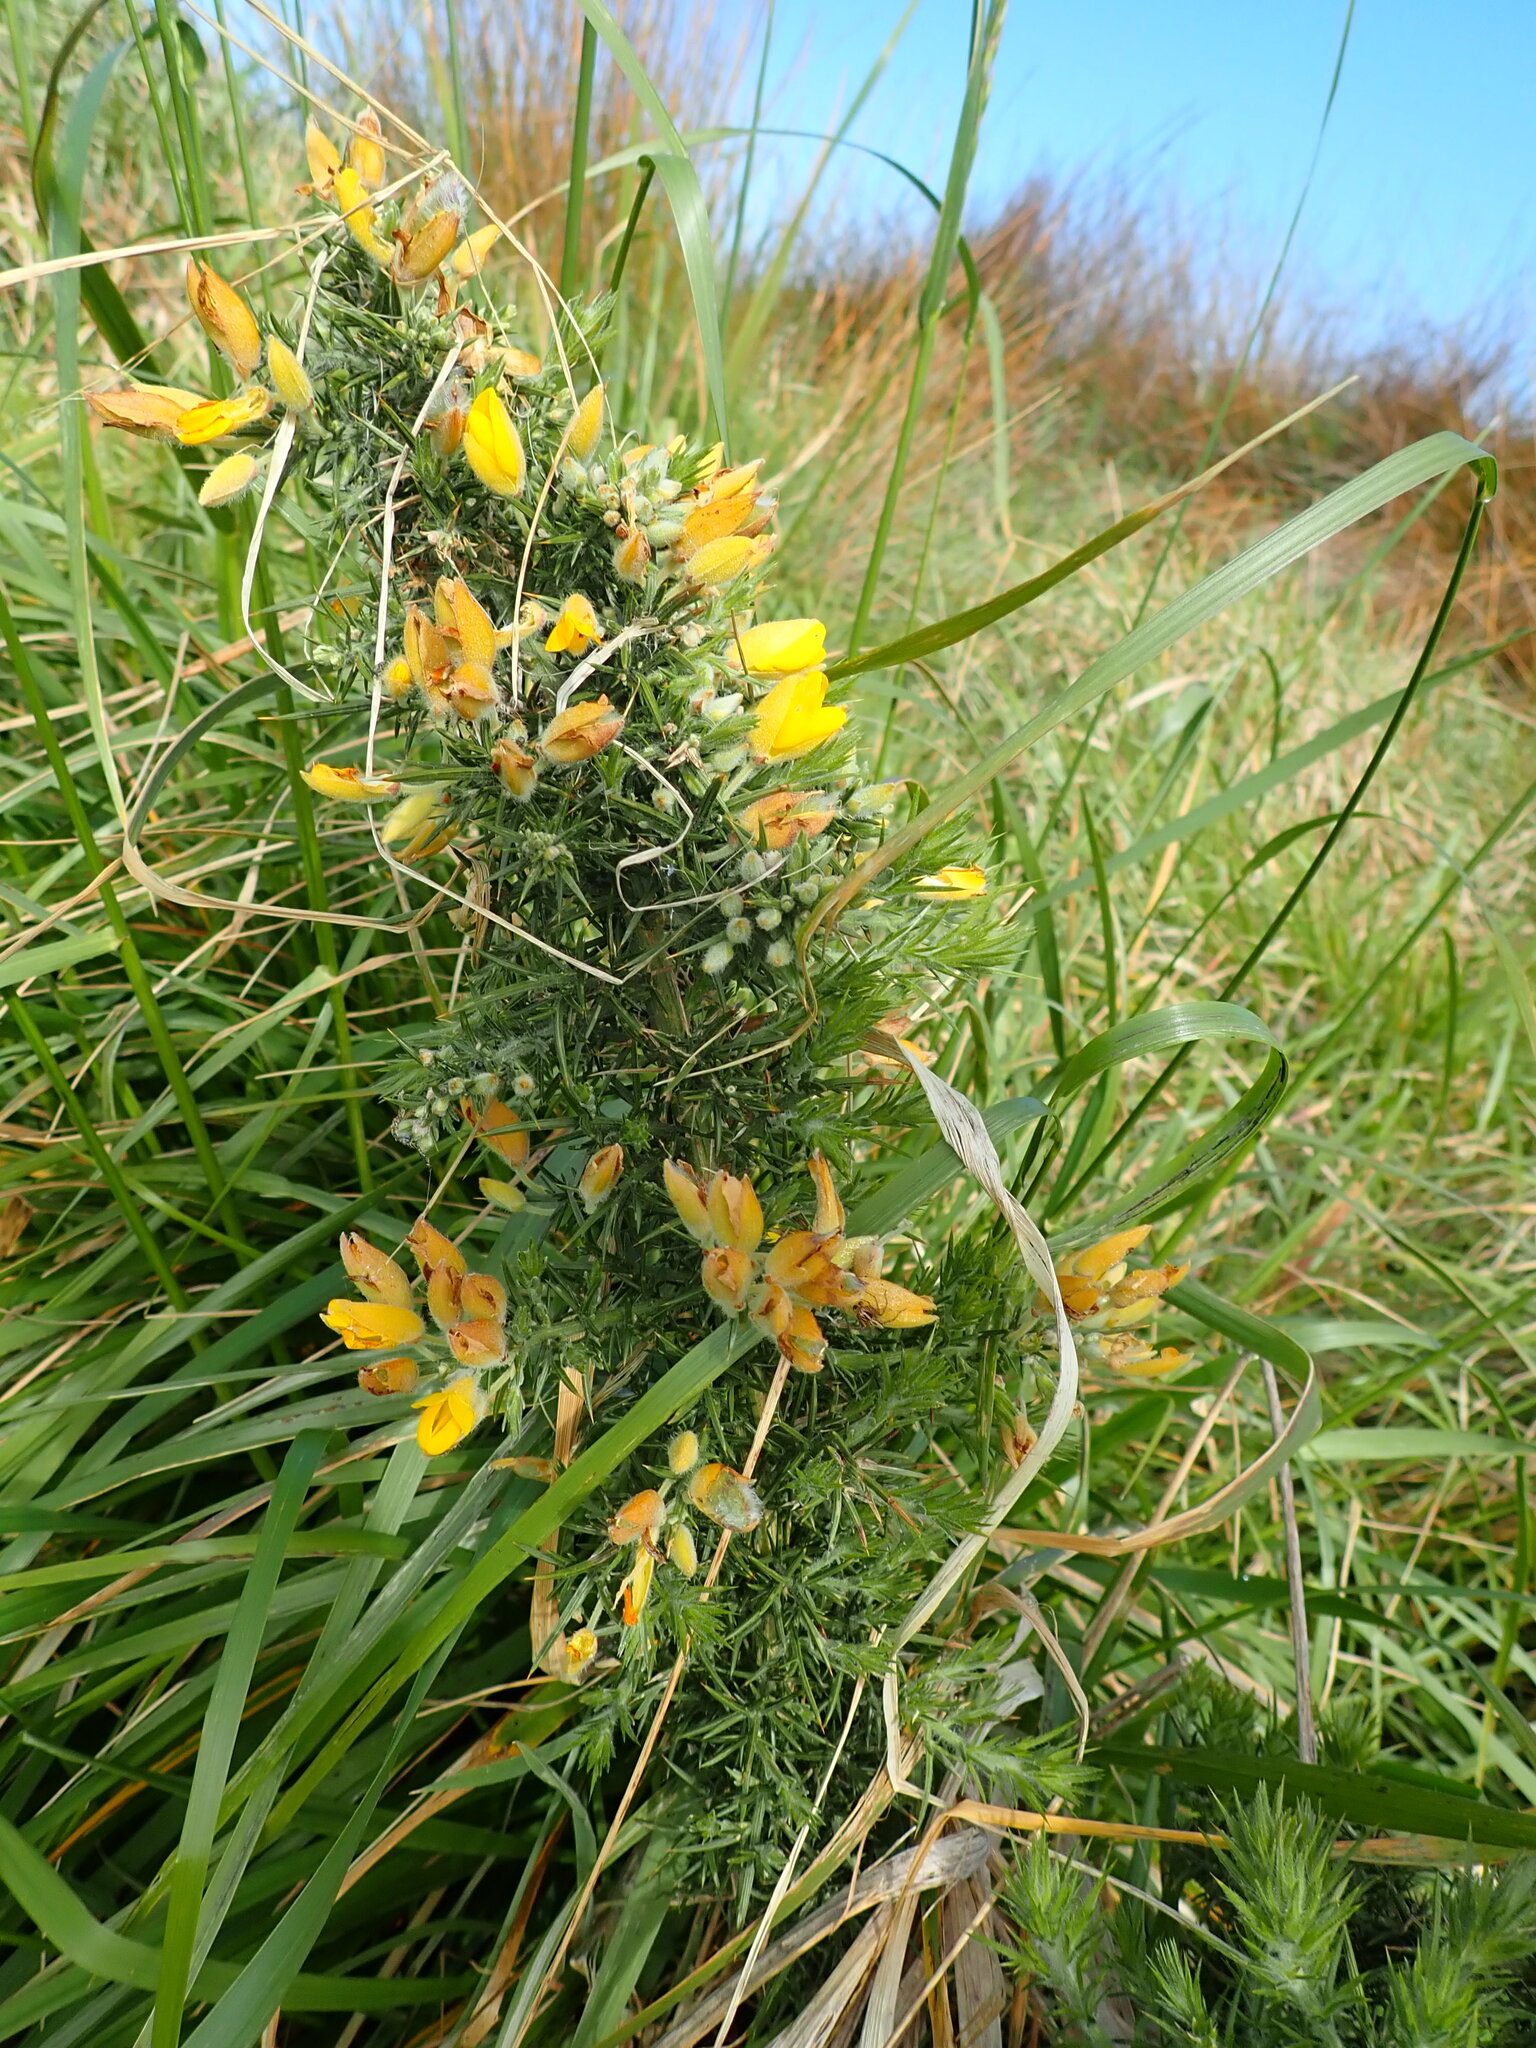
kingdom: Plantae
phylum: Tracheophyta
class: Magnoliopsida
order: Fabales
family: Fabaceae
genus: Ulex
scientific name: Ulex europaeus
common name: Common gorse
